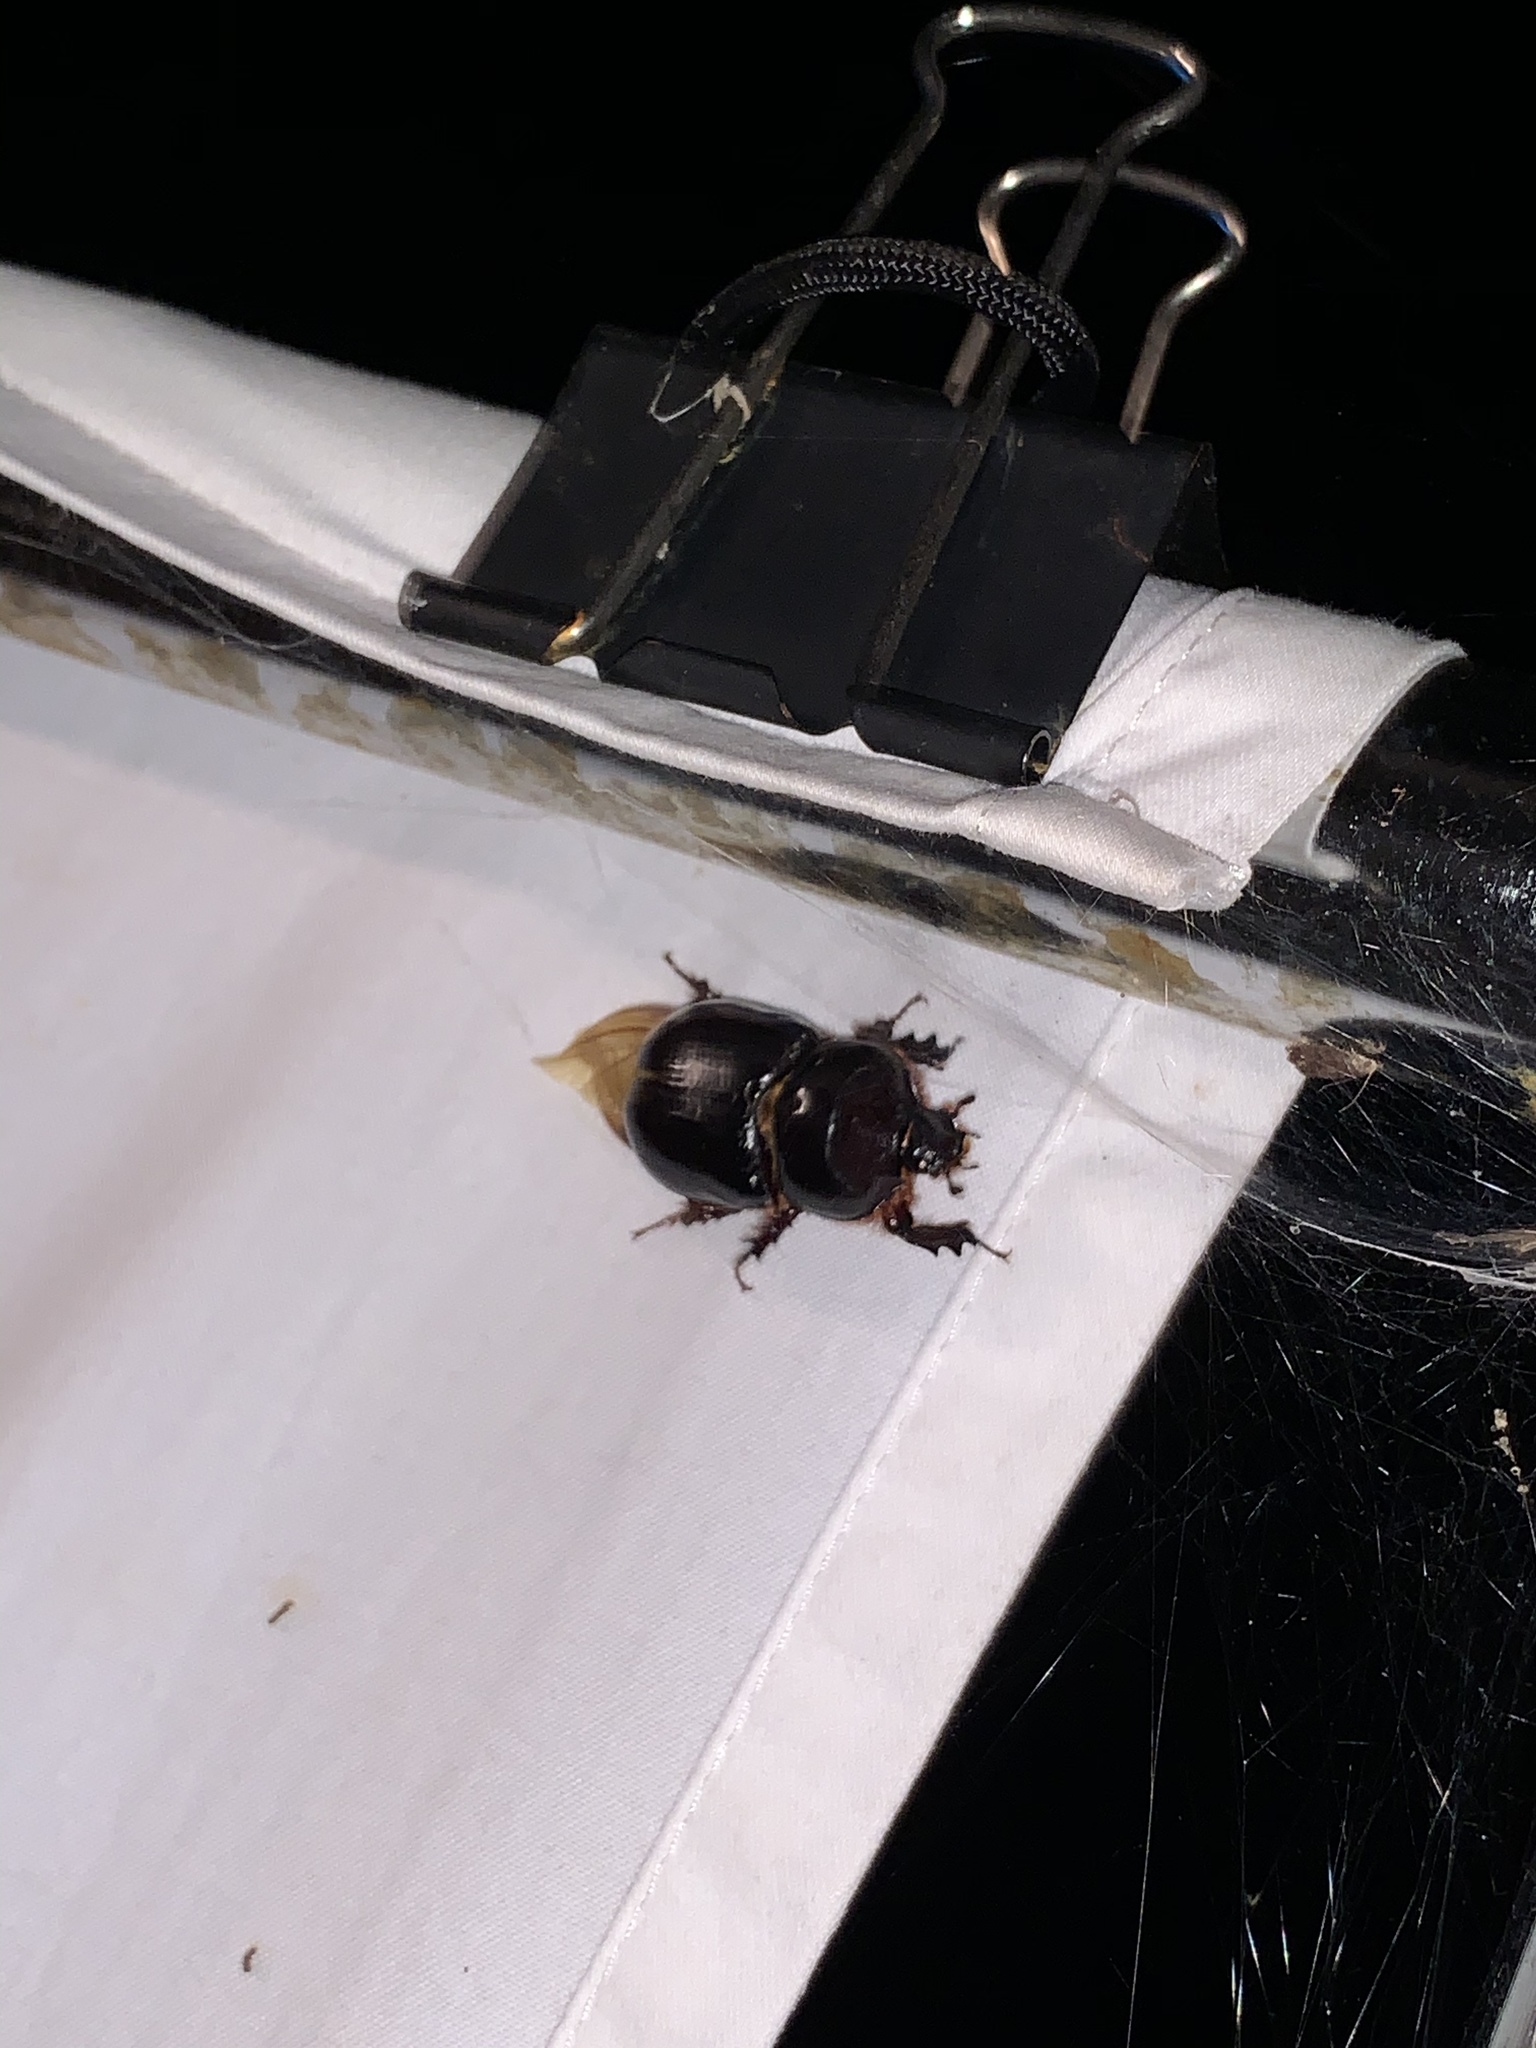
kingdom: Animalia
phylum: Arthropoda
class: Insecta
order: Coleoptera
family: Scarabaeidae
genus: Xyloryctes
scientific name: Xyloryctes jamaicensis
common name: Eastern rhinoceros beetle
